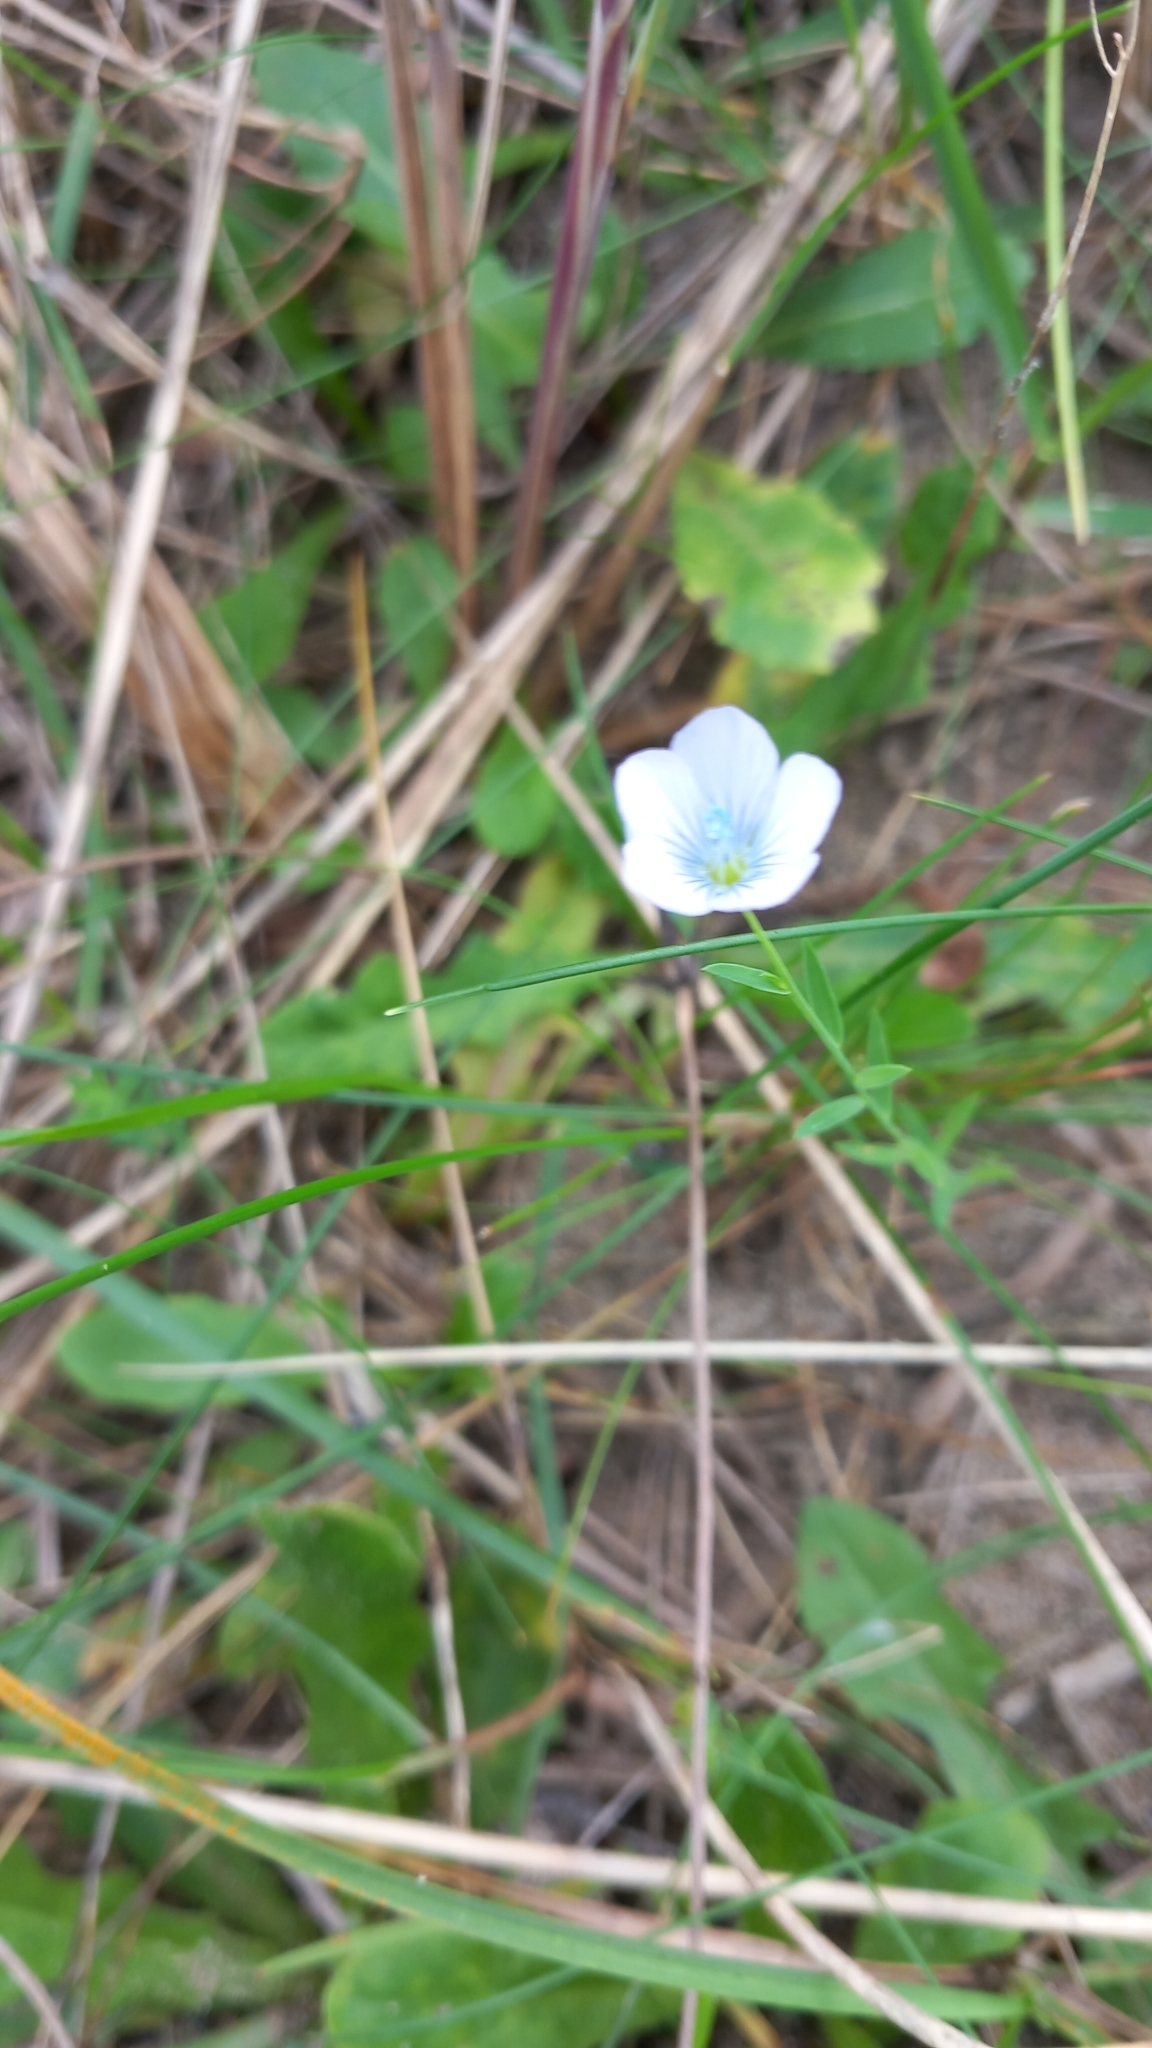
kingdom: Plantae
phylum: Tracheophyta
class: Magnoliopsida
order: Malpighiales
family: Linaceae
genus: Linum
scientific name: Linum bienne
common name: Pale flax
